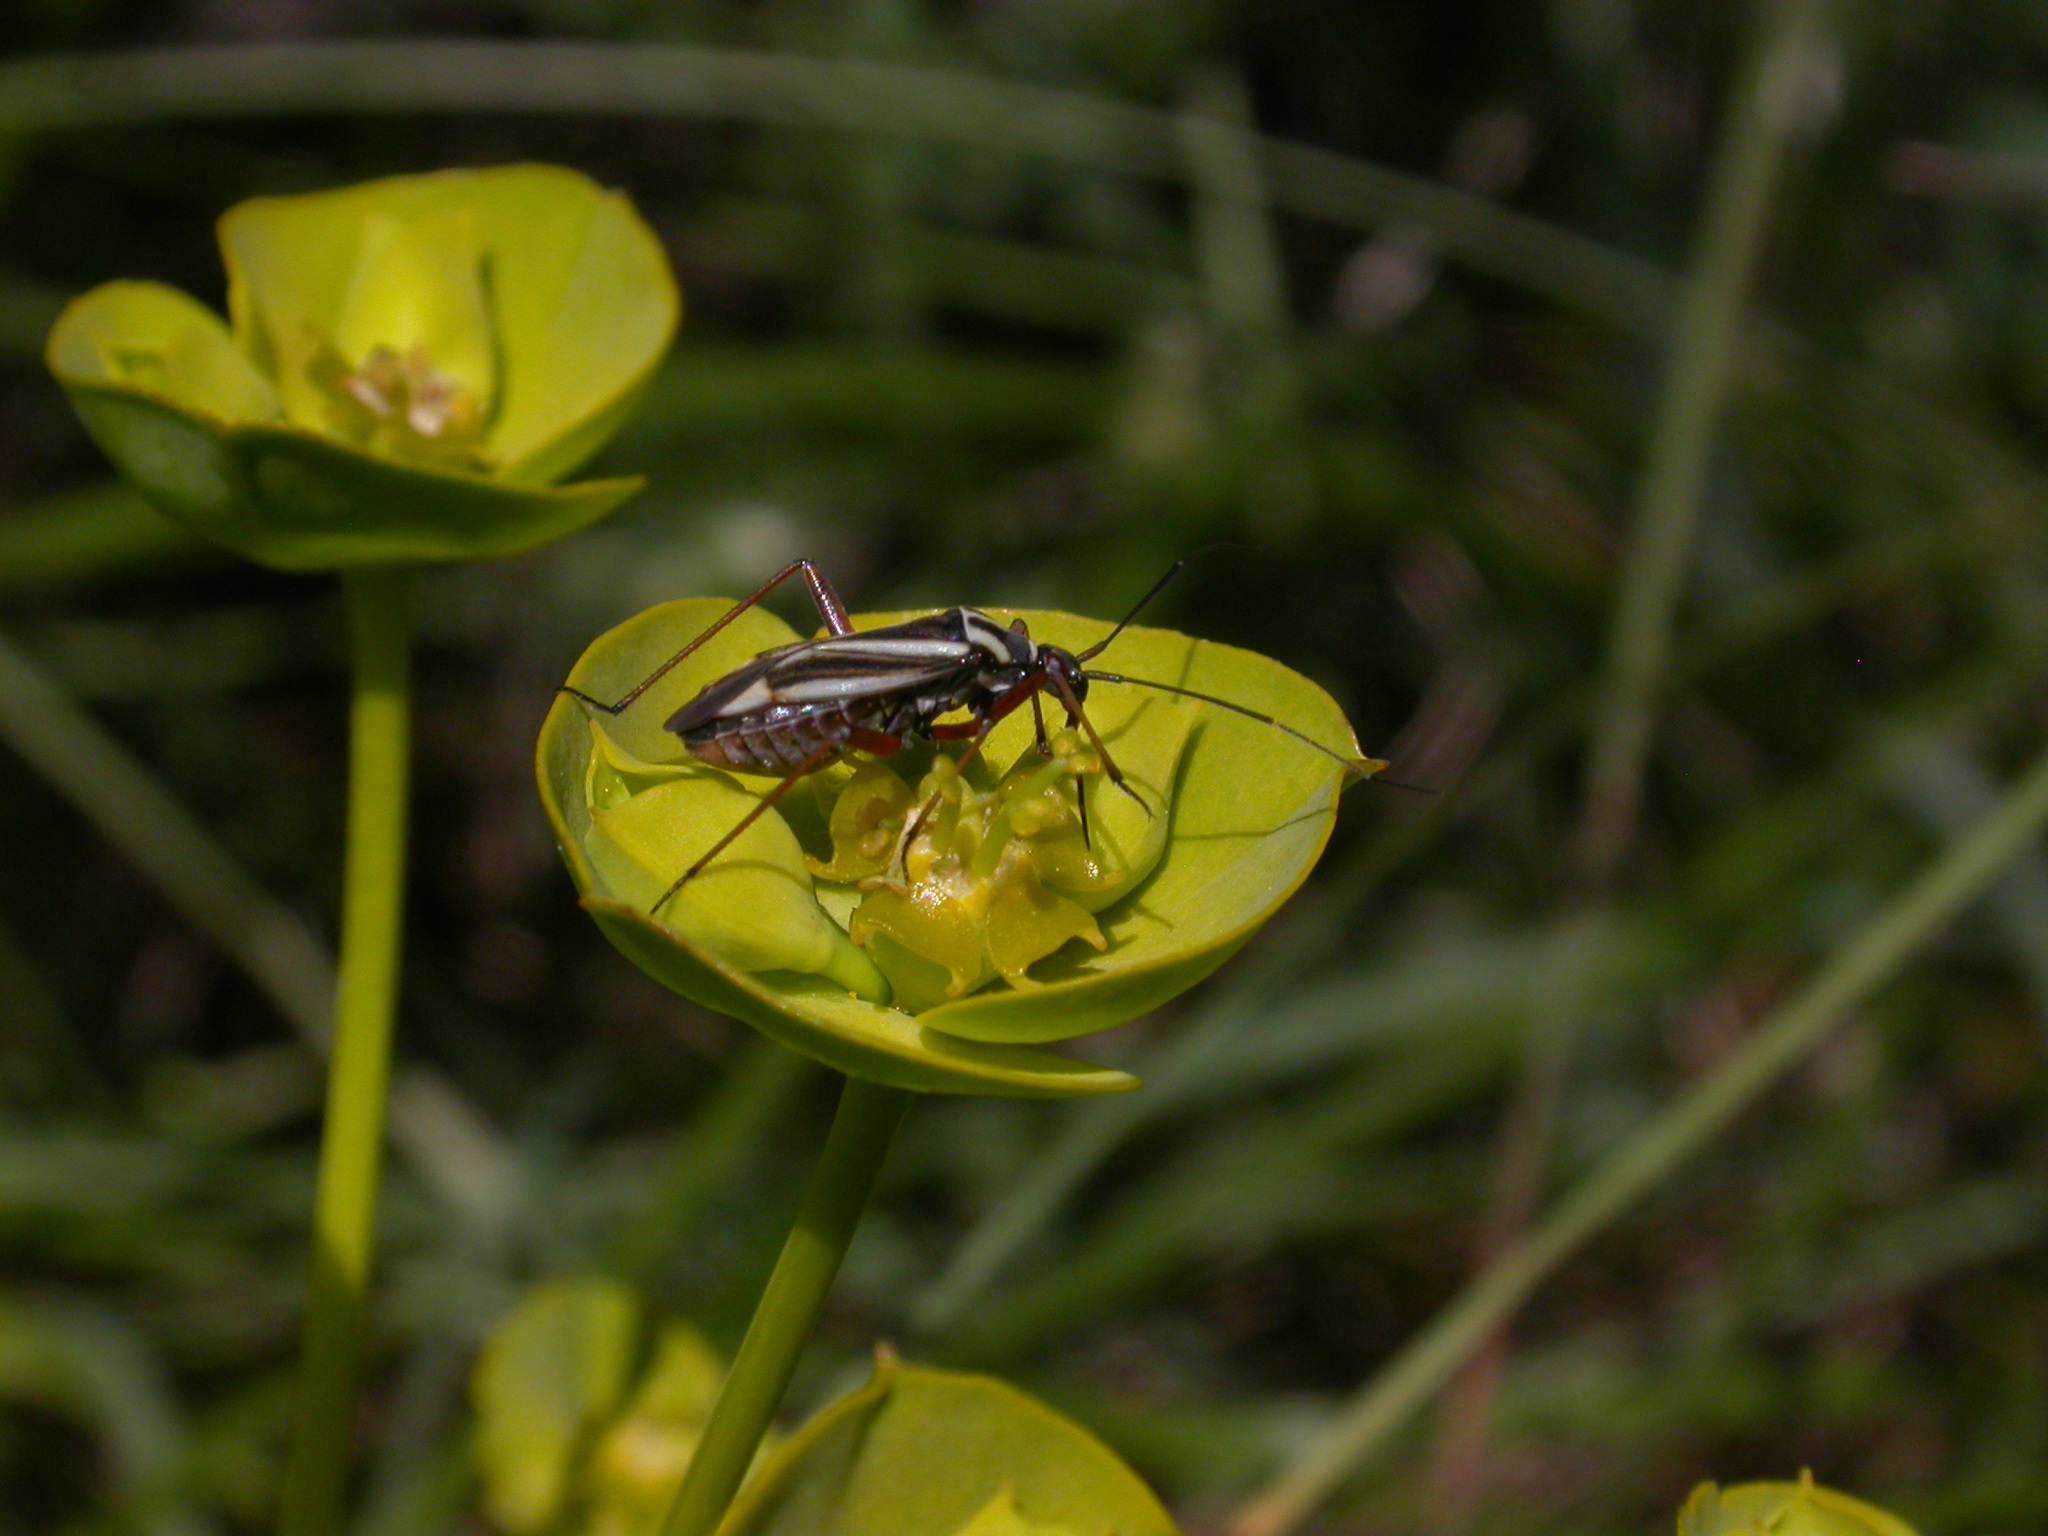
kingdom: Animalia
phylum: Arthropoda
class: Insecta
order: Hemiptera
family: Miridae
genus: Hadrodemus
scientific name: Hadrodemus m-flavum
